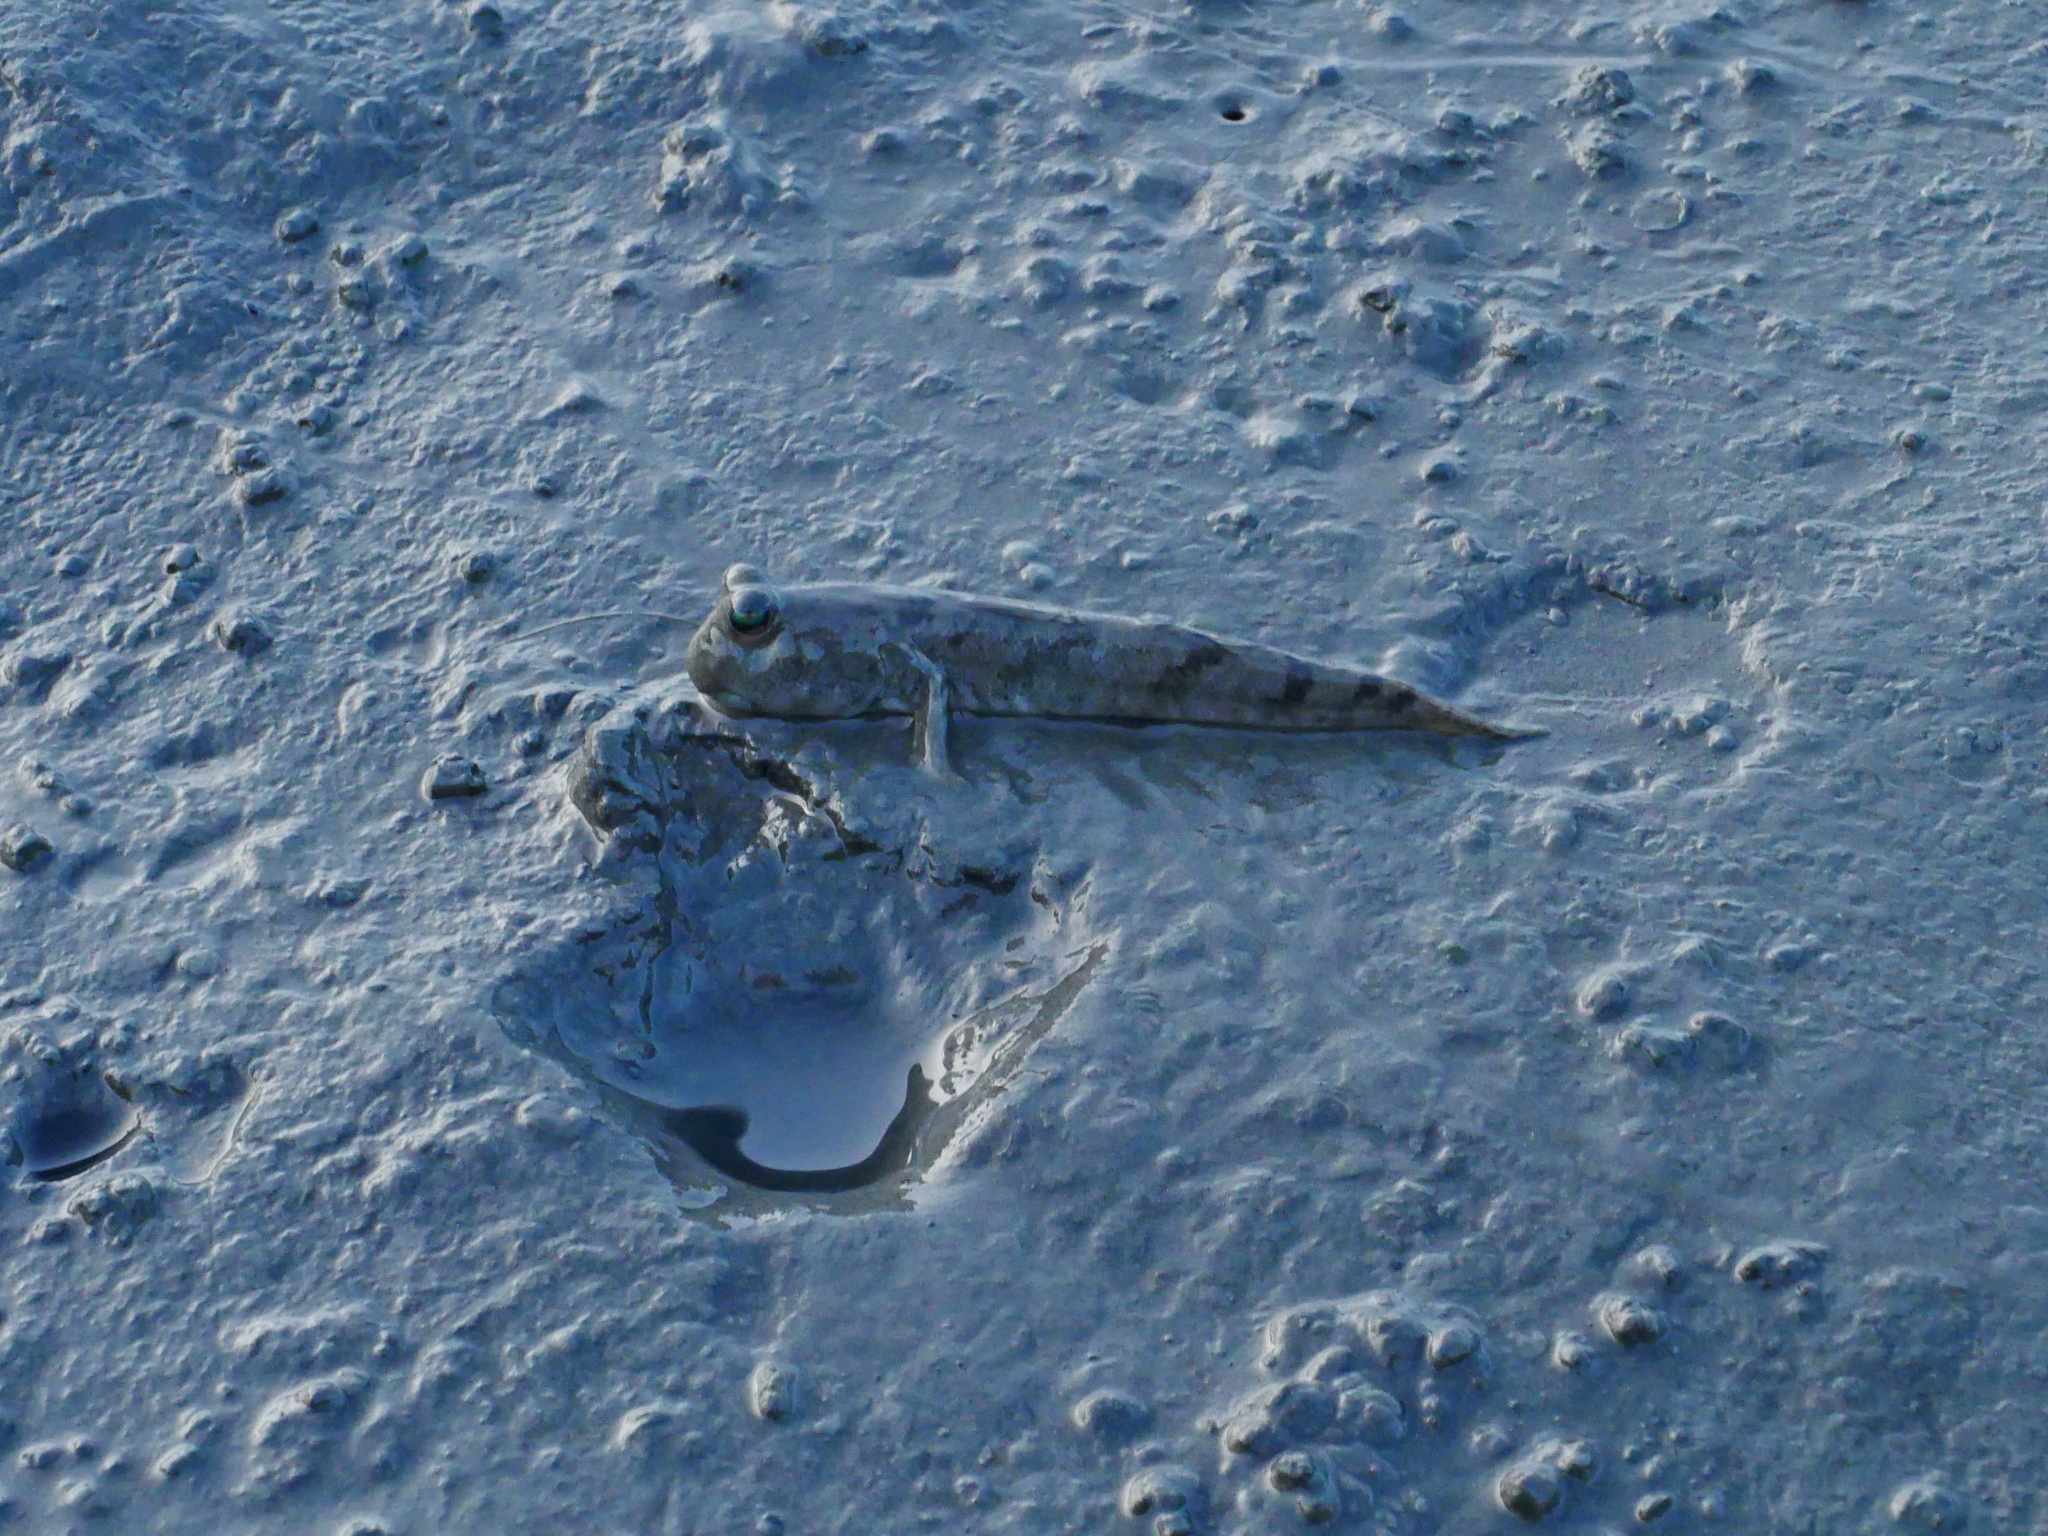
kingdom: Animalia
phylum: Chordata
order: Perciformes
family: Gobiidae
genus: Periophthalmus
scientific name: Periophthalmus modestus
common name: Black goby
